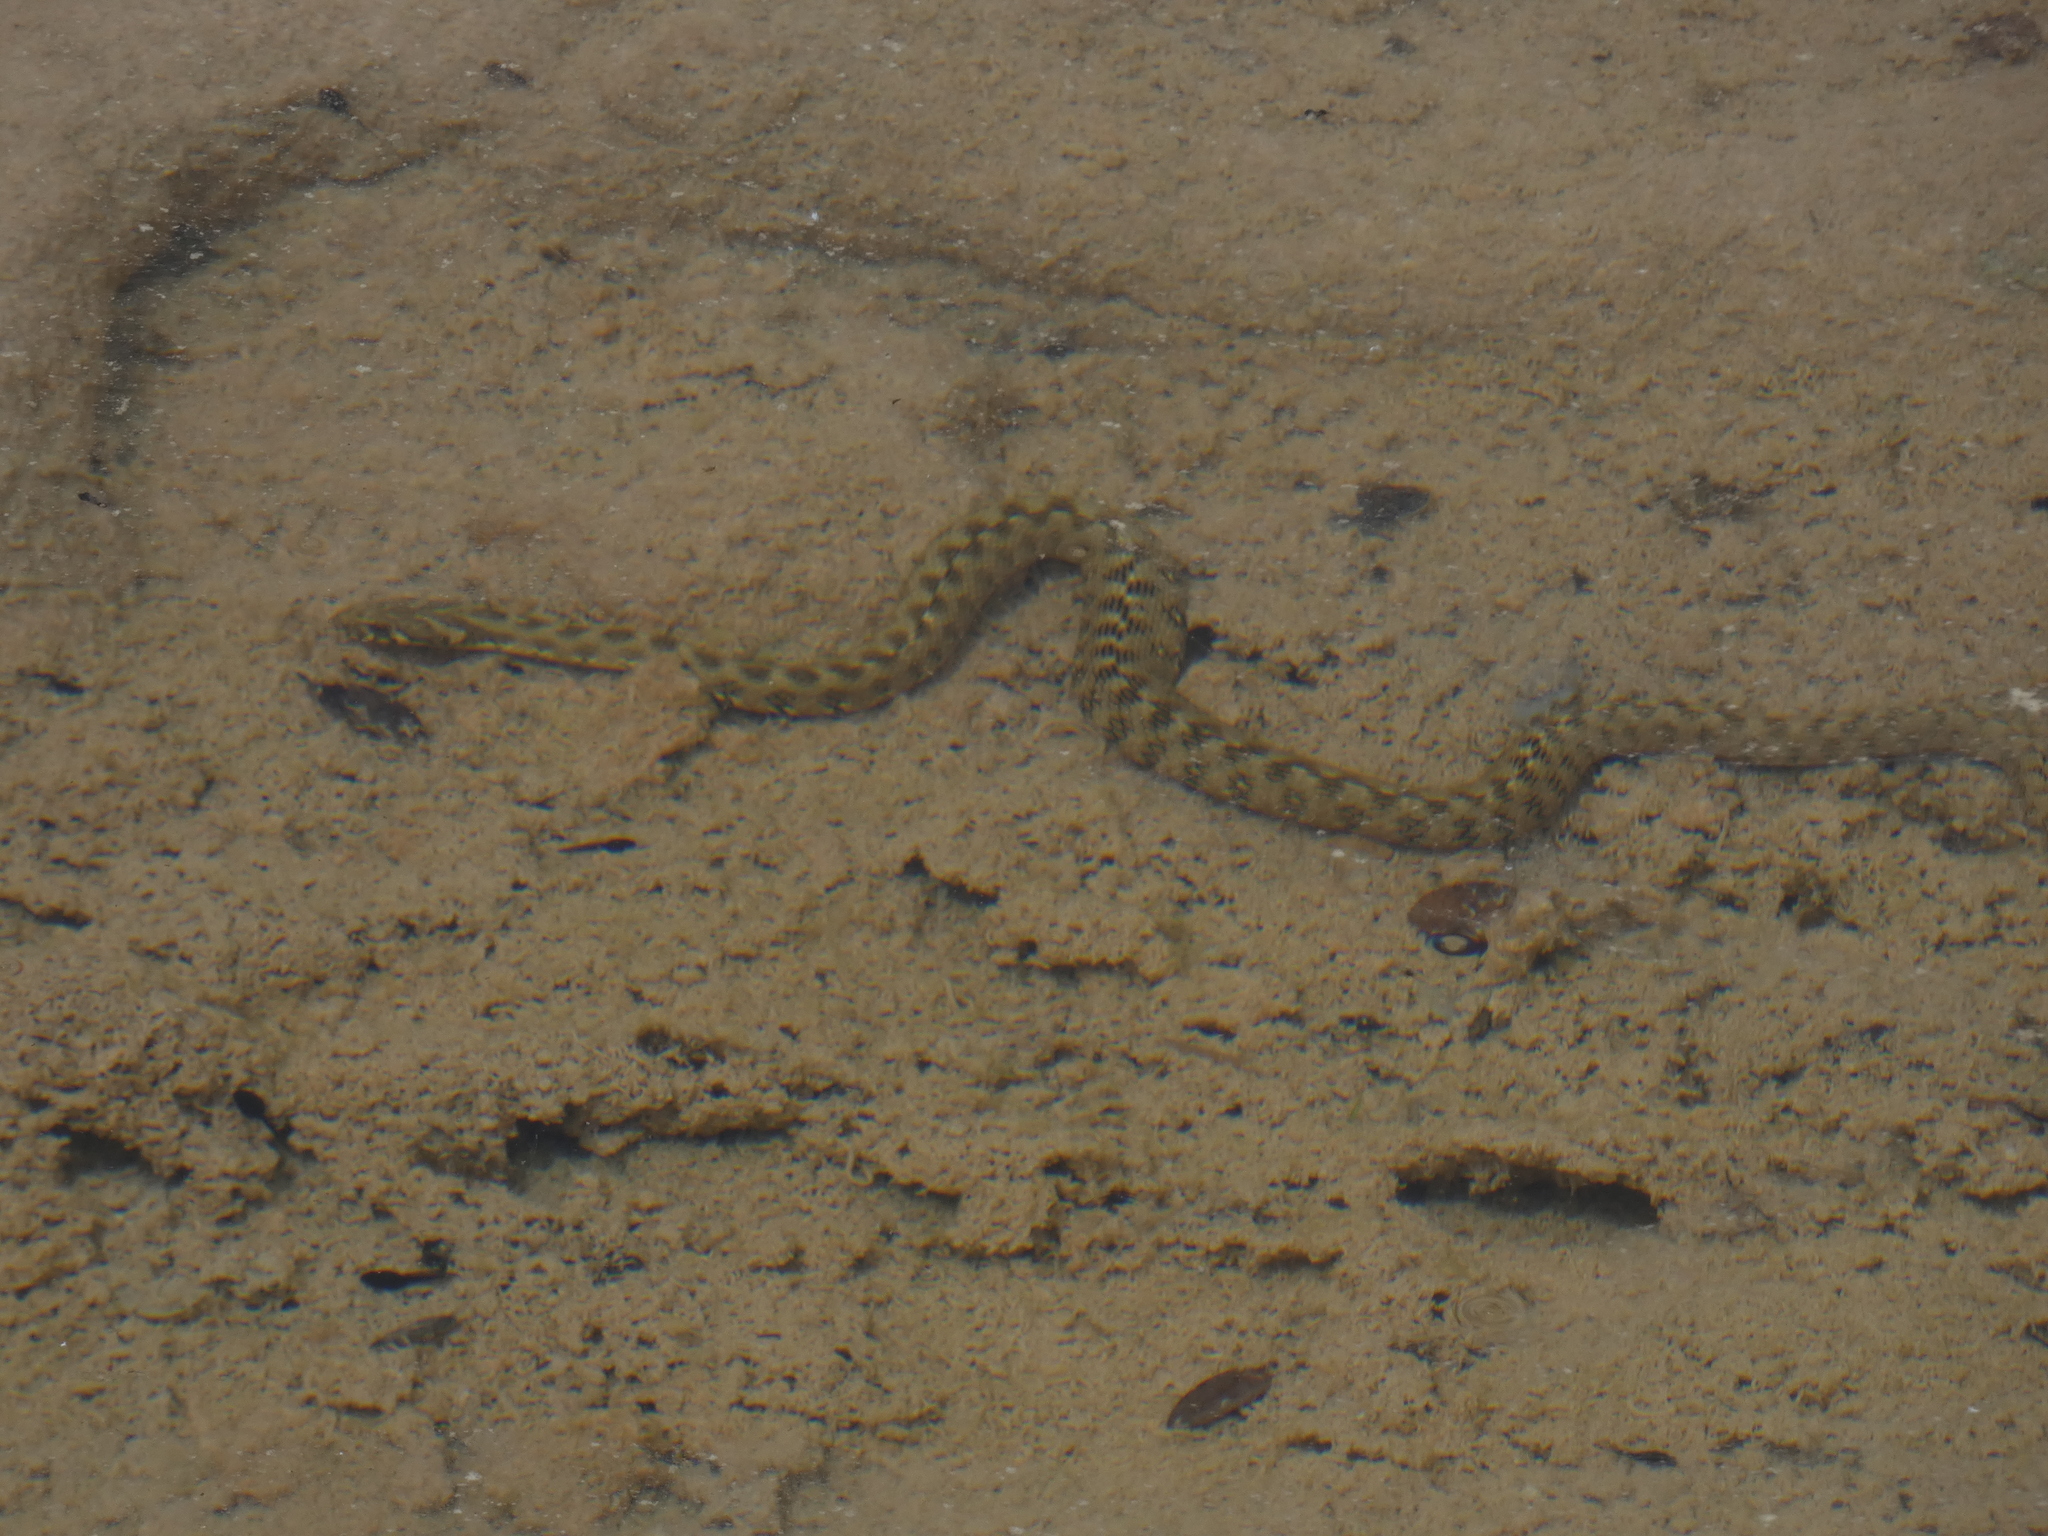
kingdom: Animalia
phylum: Chordata
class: Squamata
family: Colubridae
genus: Natrix
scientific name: Natrix maura
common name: Viperine water snake
